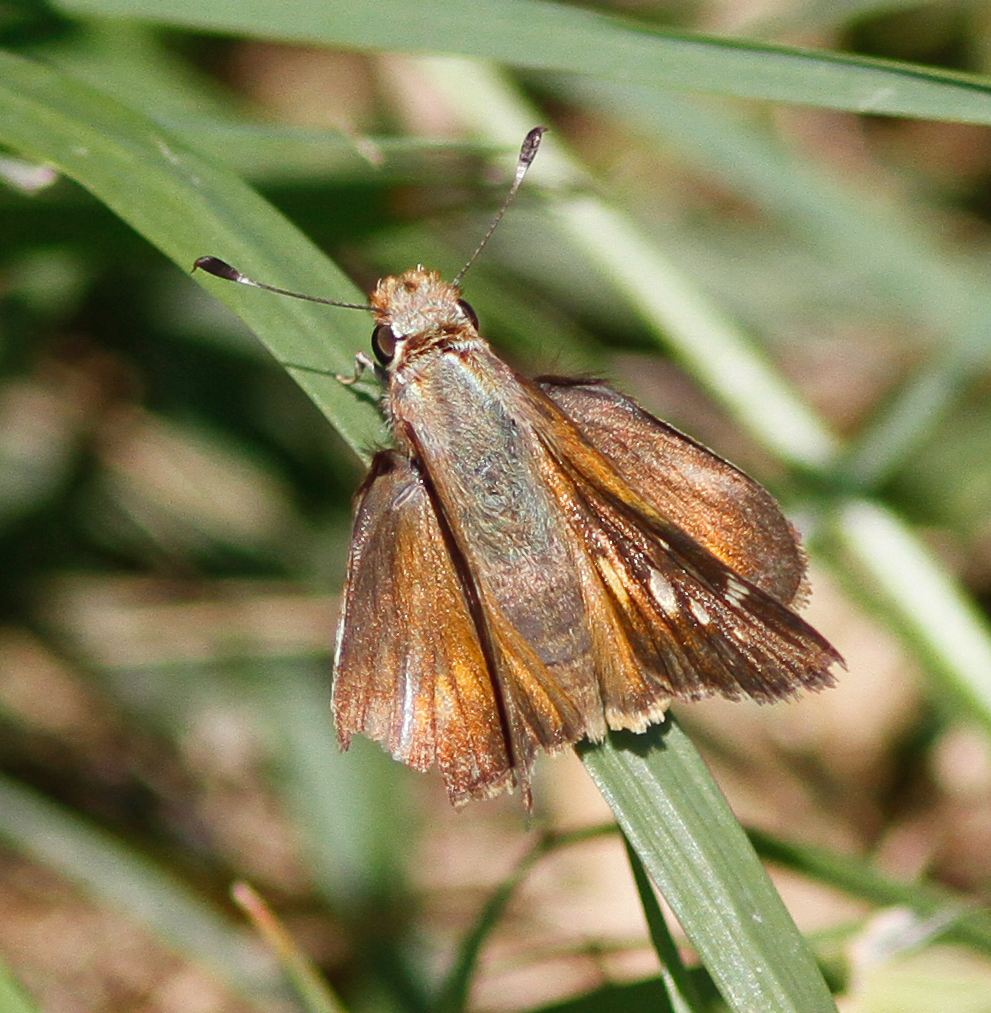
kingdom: Animalia
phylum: Arthropoda
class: Insecta
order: Lepidoptera
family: Hesperiidae
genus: Lon
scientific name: Lon melane
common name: Umber skipper
